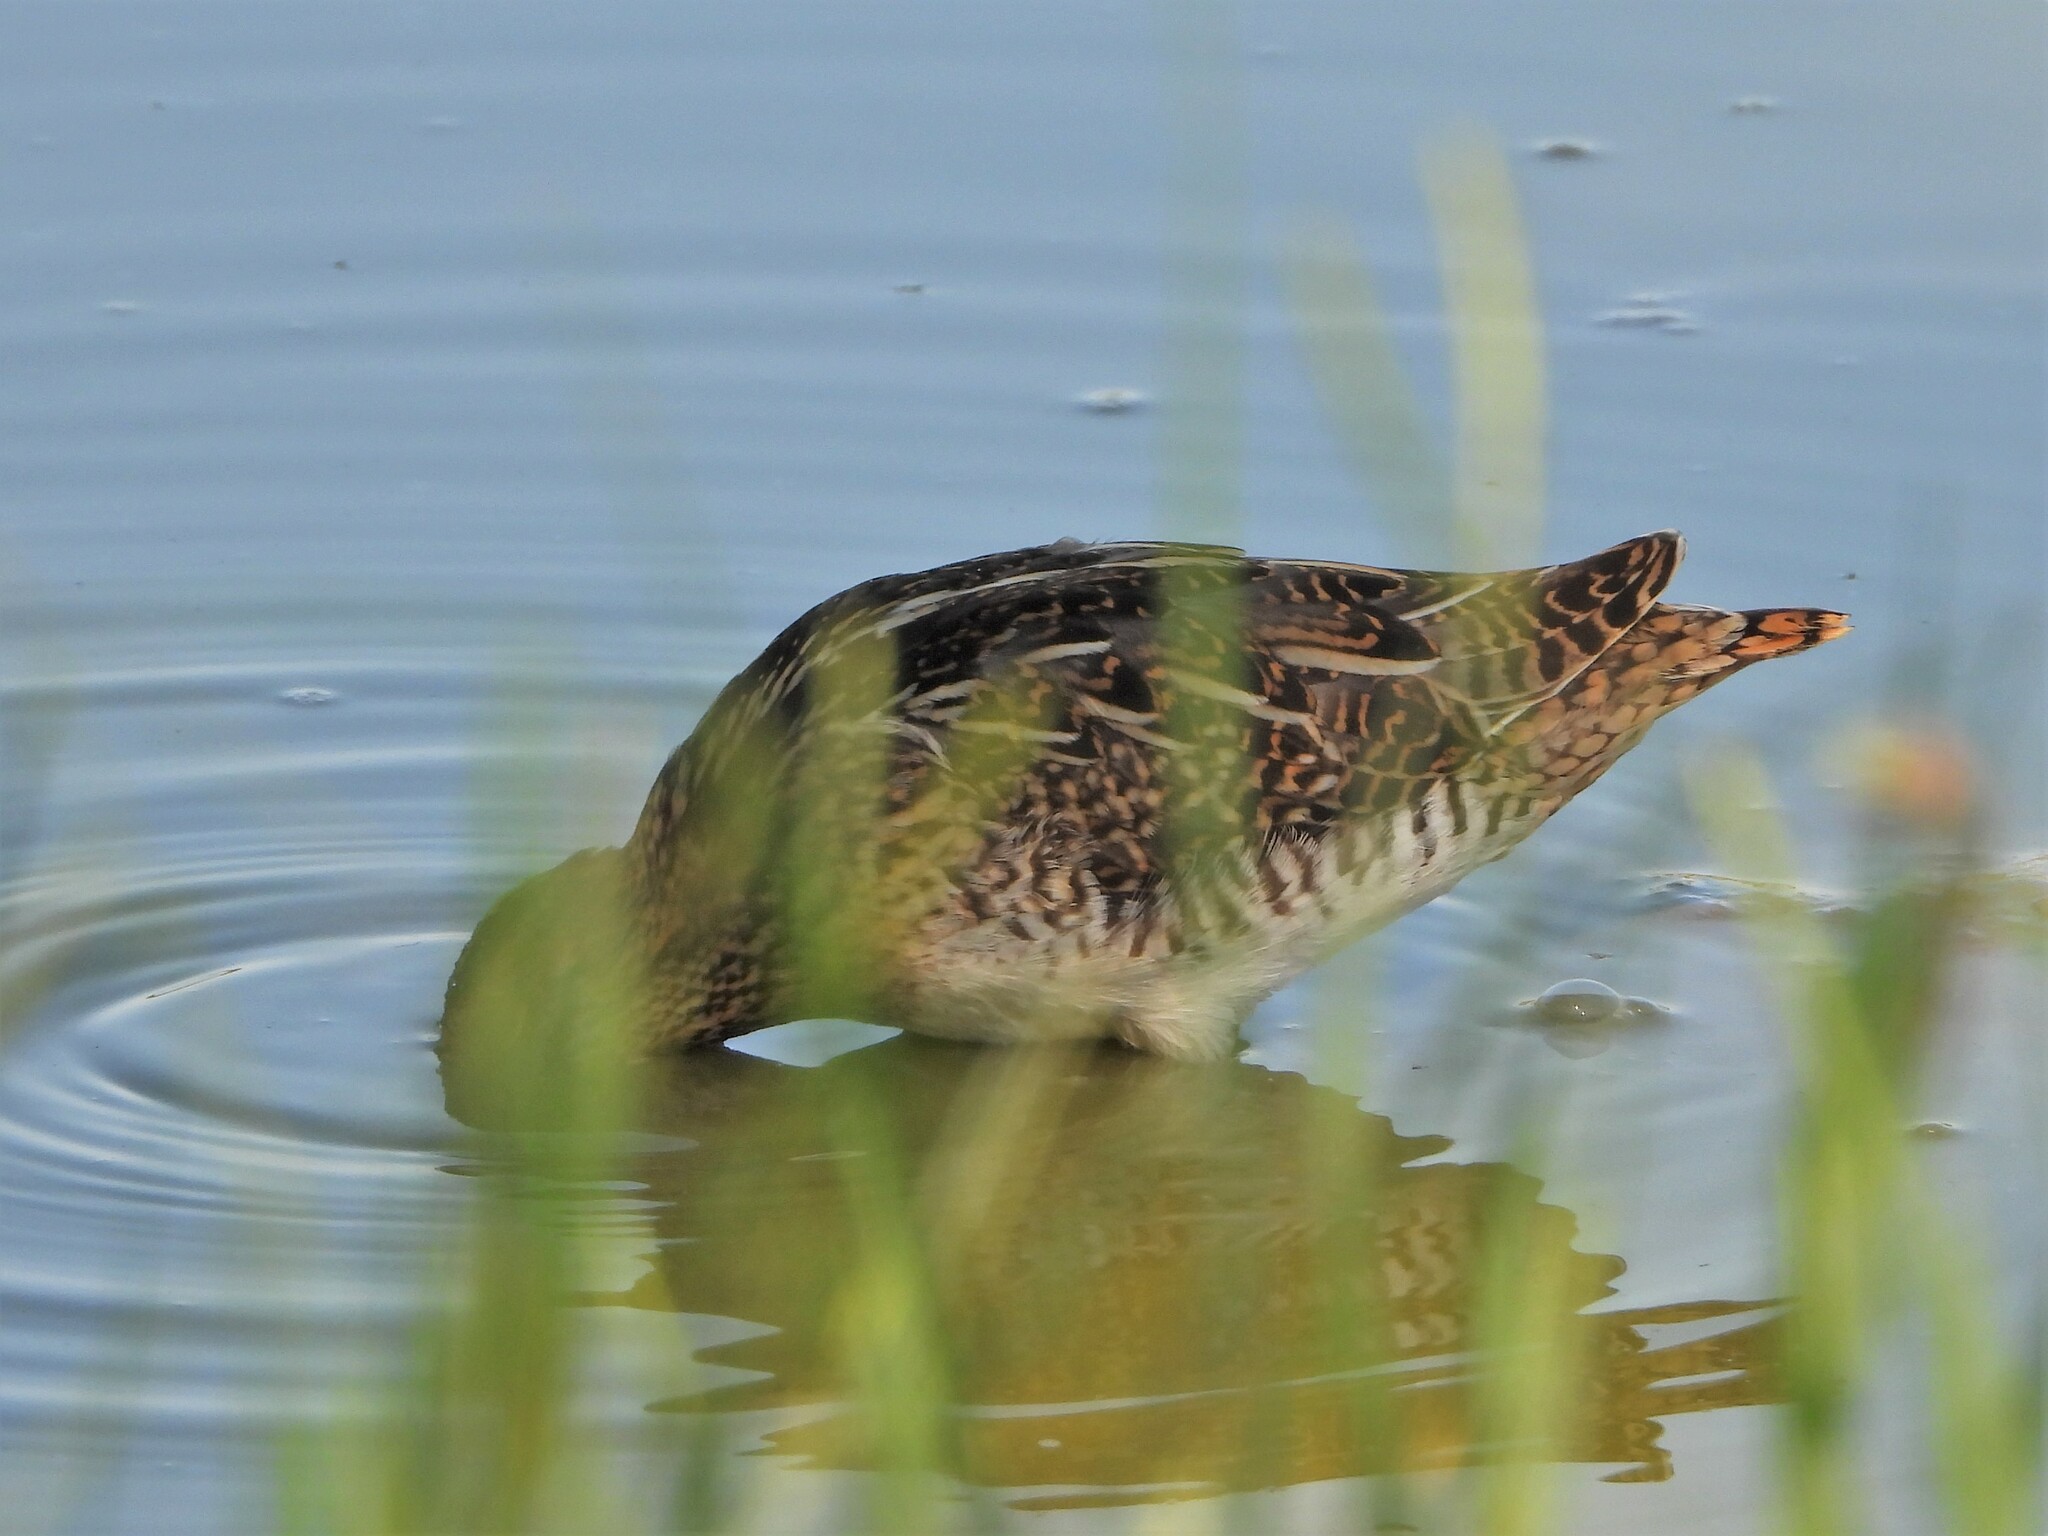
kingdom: Animalia
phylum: Chordata
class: Aves
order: Charadriiformes
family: Scolopacidae
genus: Gallinago
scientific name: Gallinago gallinago
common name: Common snipe
